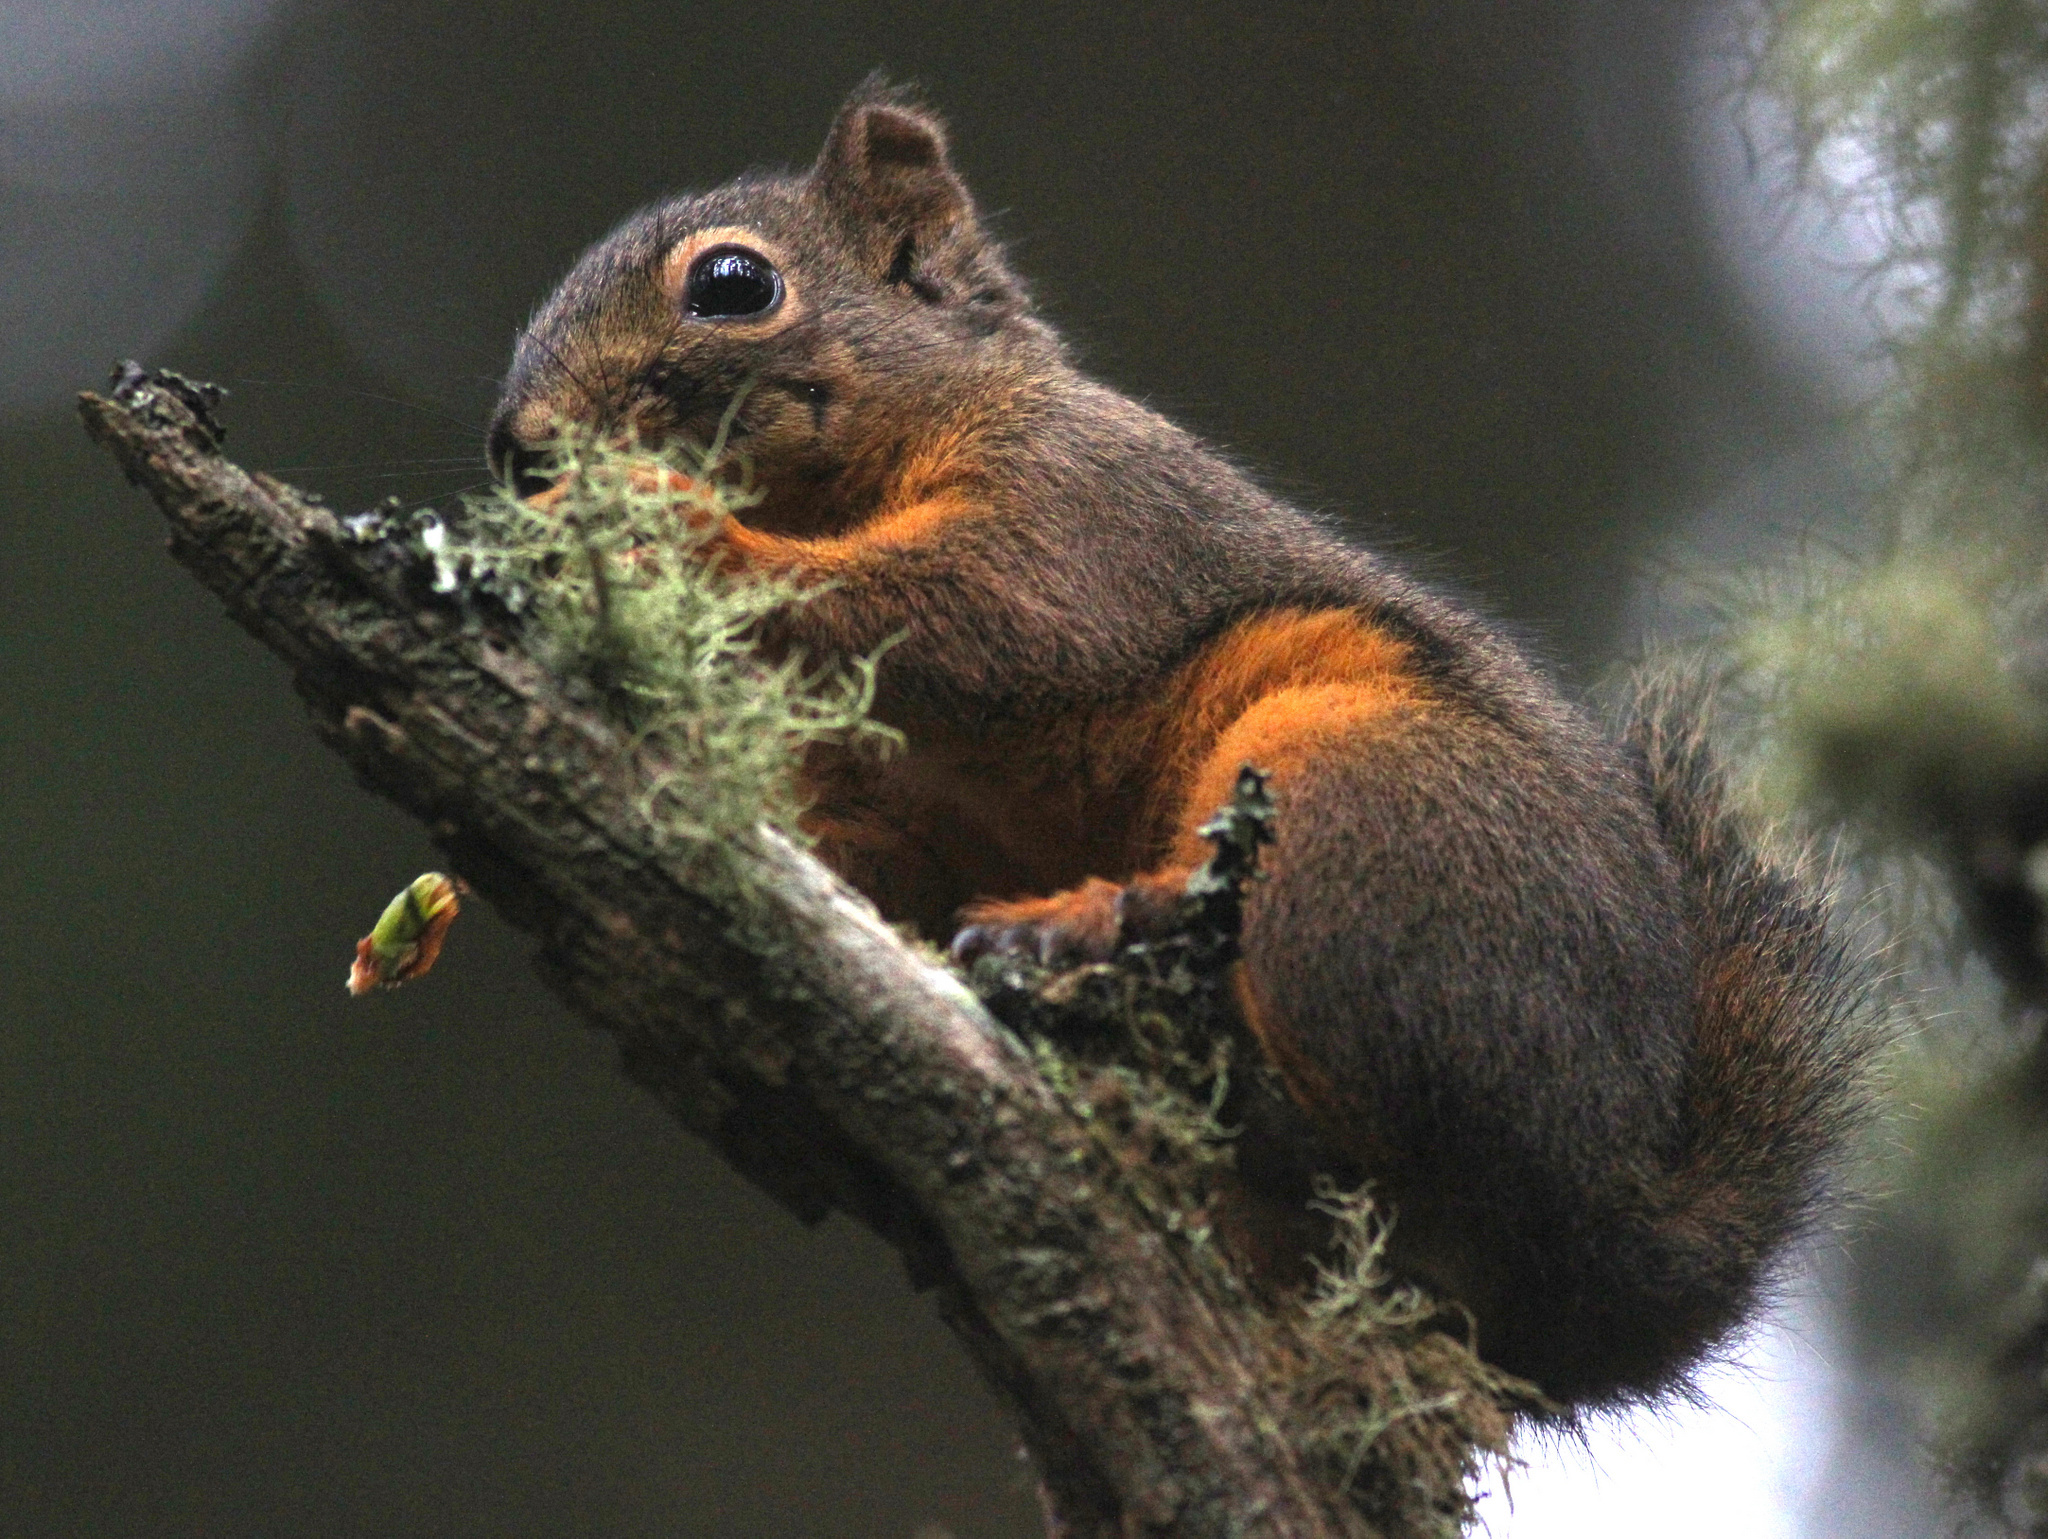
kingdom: Animalia
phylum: Chordata
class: Mammalia
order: Rodentia
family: Sciuridae
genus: Tamiasciurus
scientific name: Tamiasciurus douglasii
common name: Douglas's squirrel
